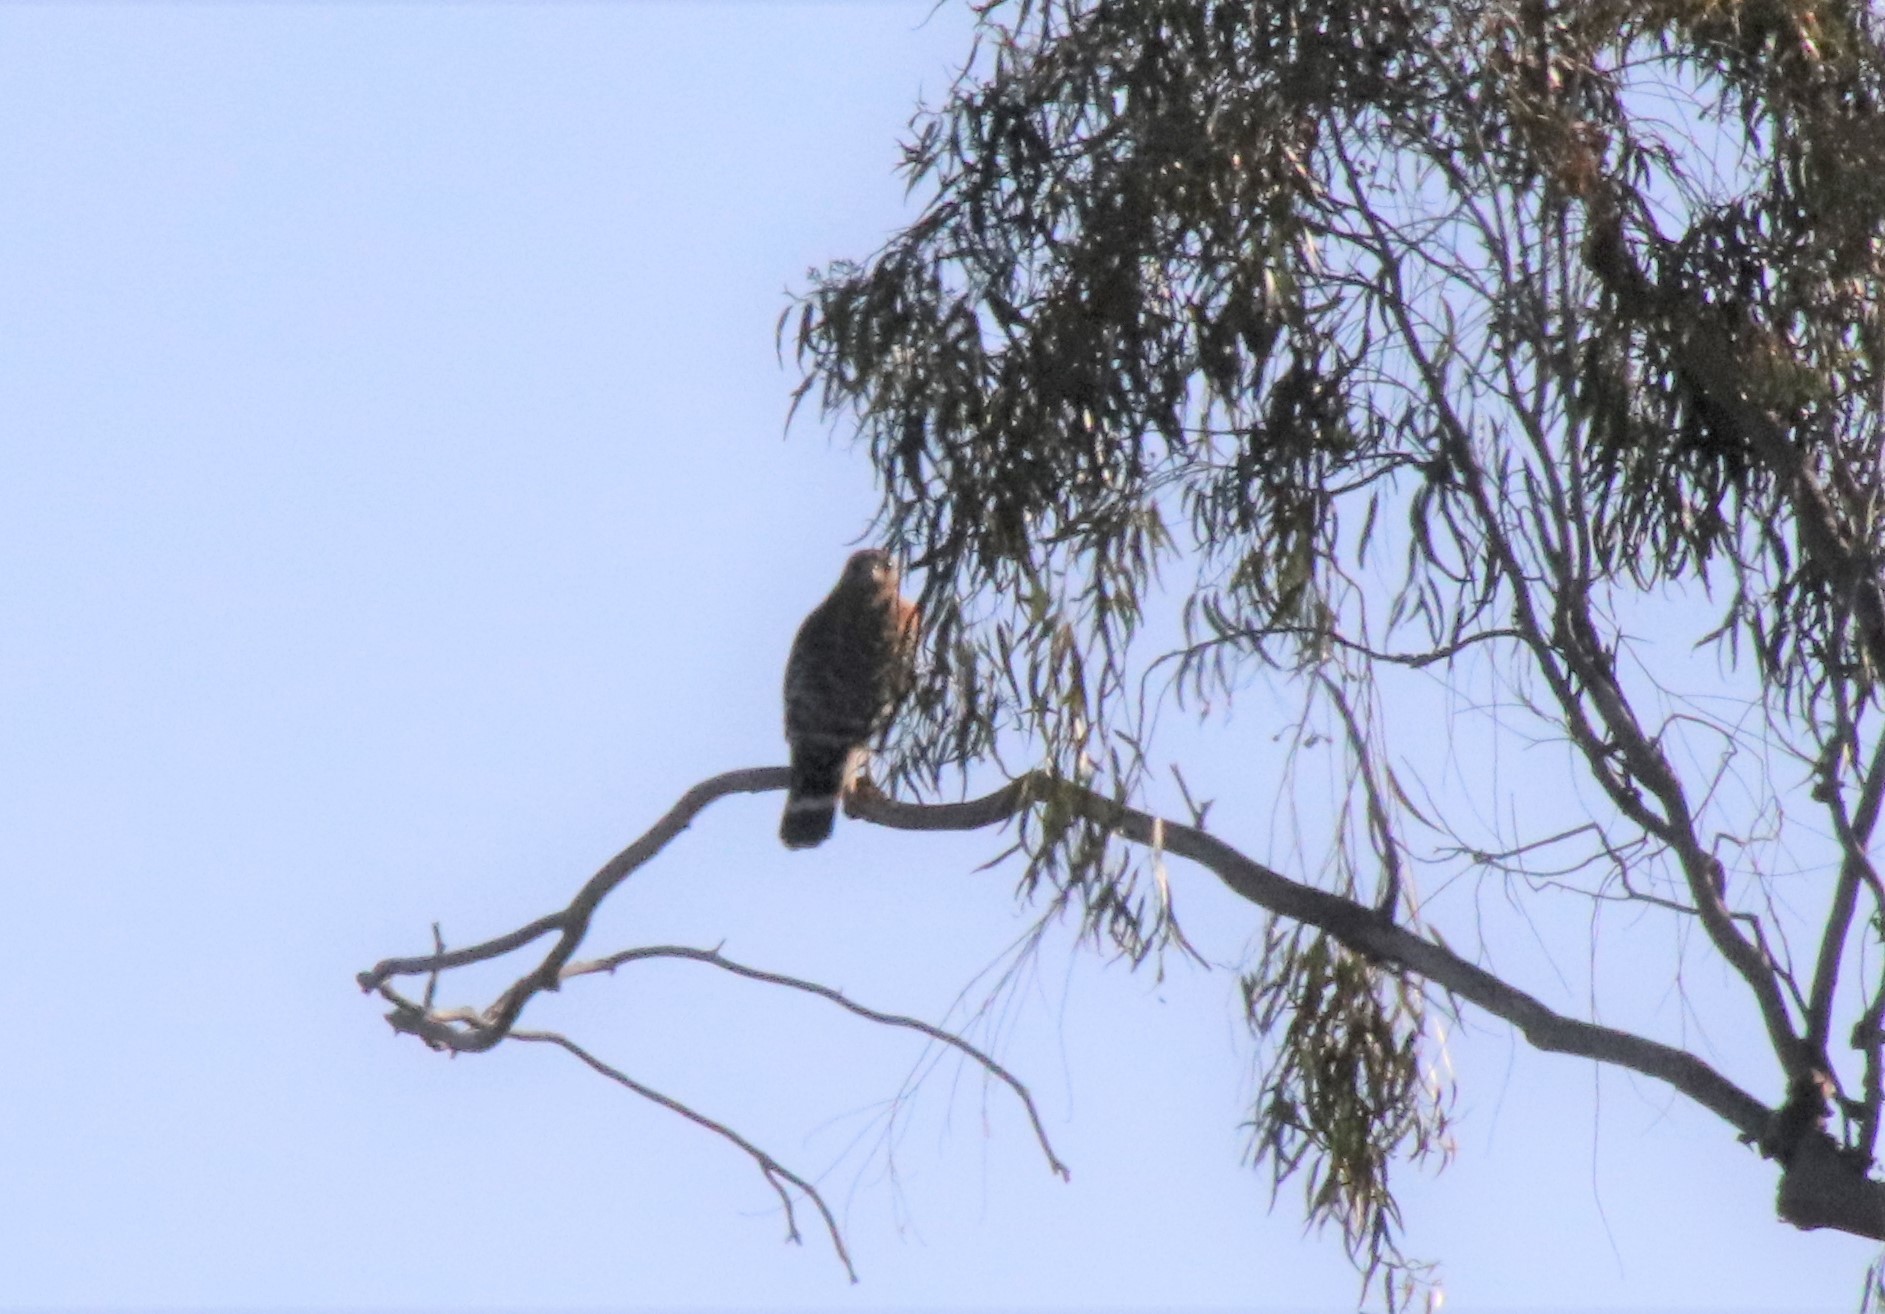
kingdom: Animalia
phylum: Chordata
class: Aves
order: Accipitriformes
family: Accipitridae
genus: Buteo
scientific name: Buteo lineatus
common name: Red-shouldered hawk
